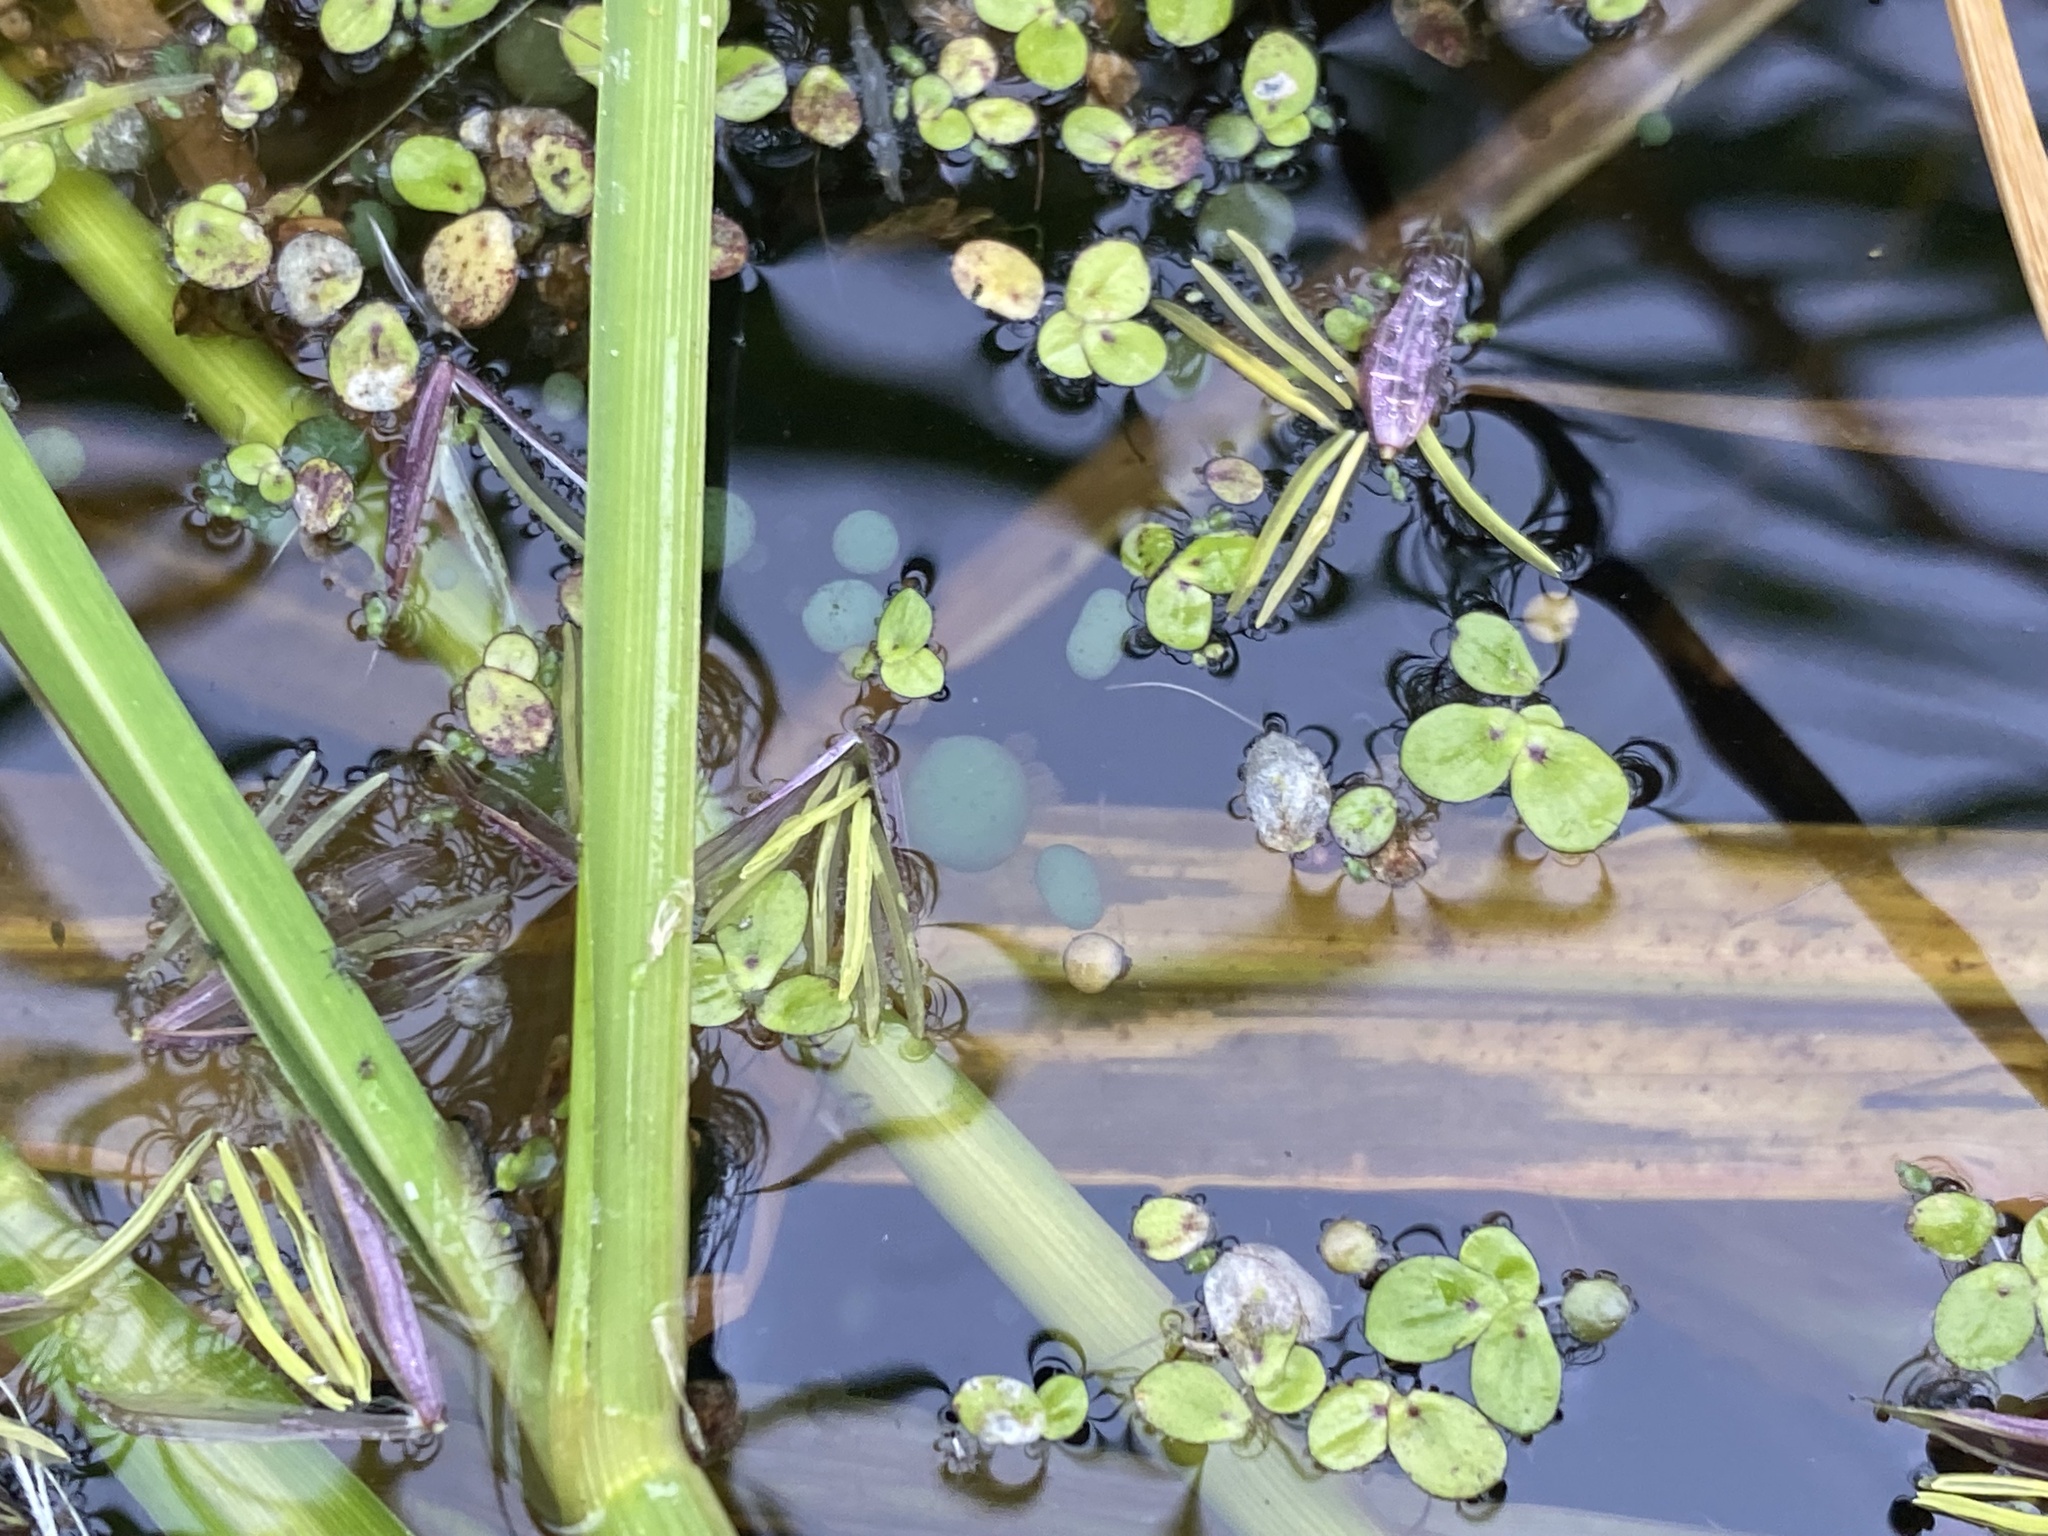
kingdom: Plantae
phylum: Tracheophyta
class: Liliopsida
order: Alismatales
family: Araceae
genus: Spirodela
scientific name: Spirodela polyrhiza
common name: Great duckweed
